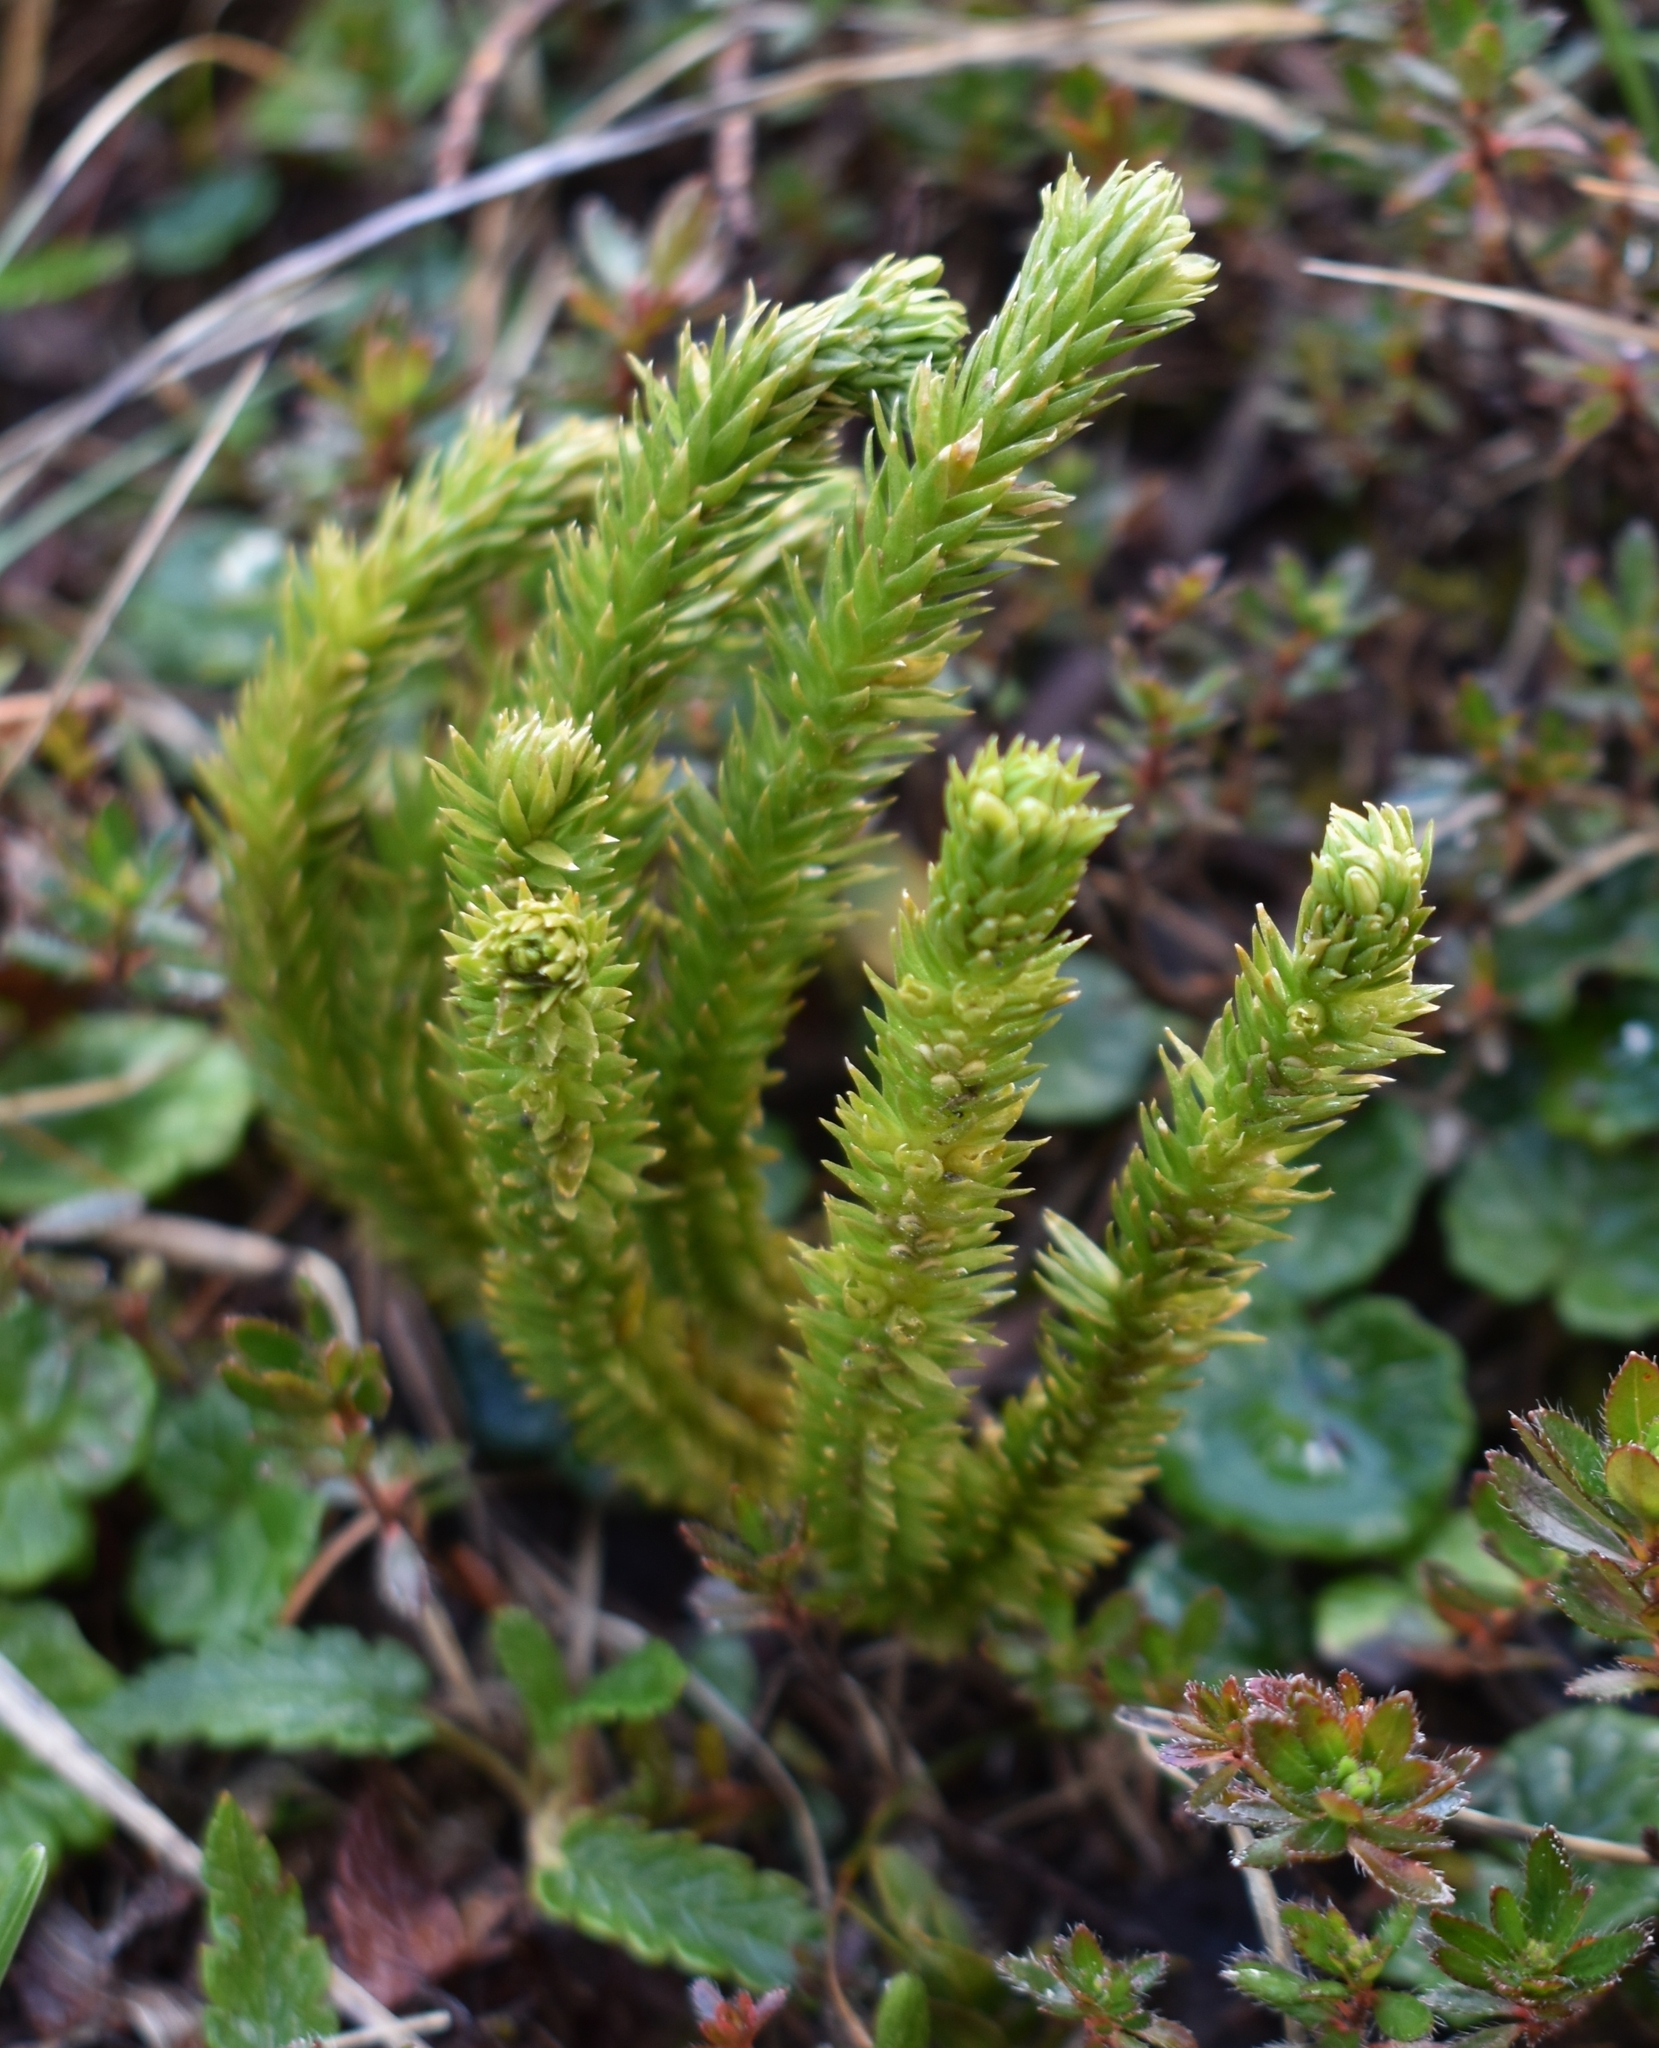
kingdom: Plantae
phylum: Tracheophyta
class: Lycopodiopsida
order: Lycopodiales
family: Lycopodiaceae
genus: Huperzia
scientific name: Huperzia selago
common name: Northern firmoss
